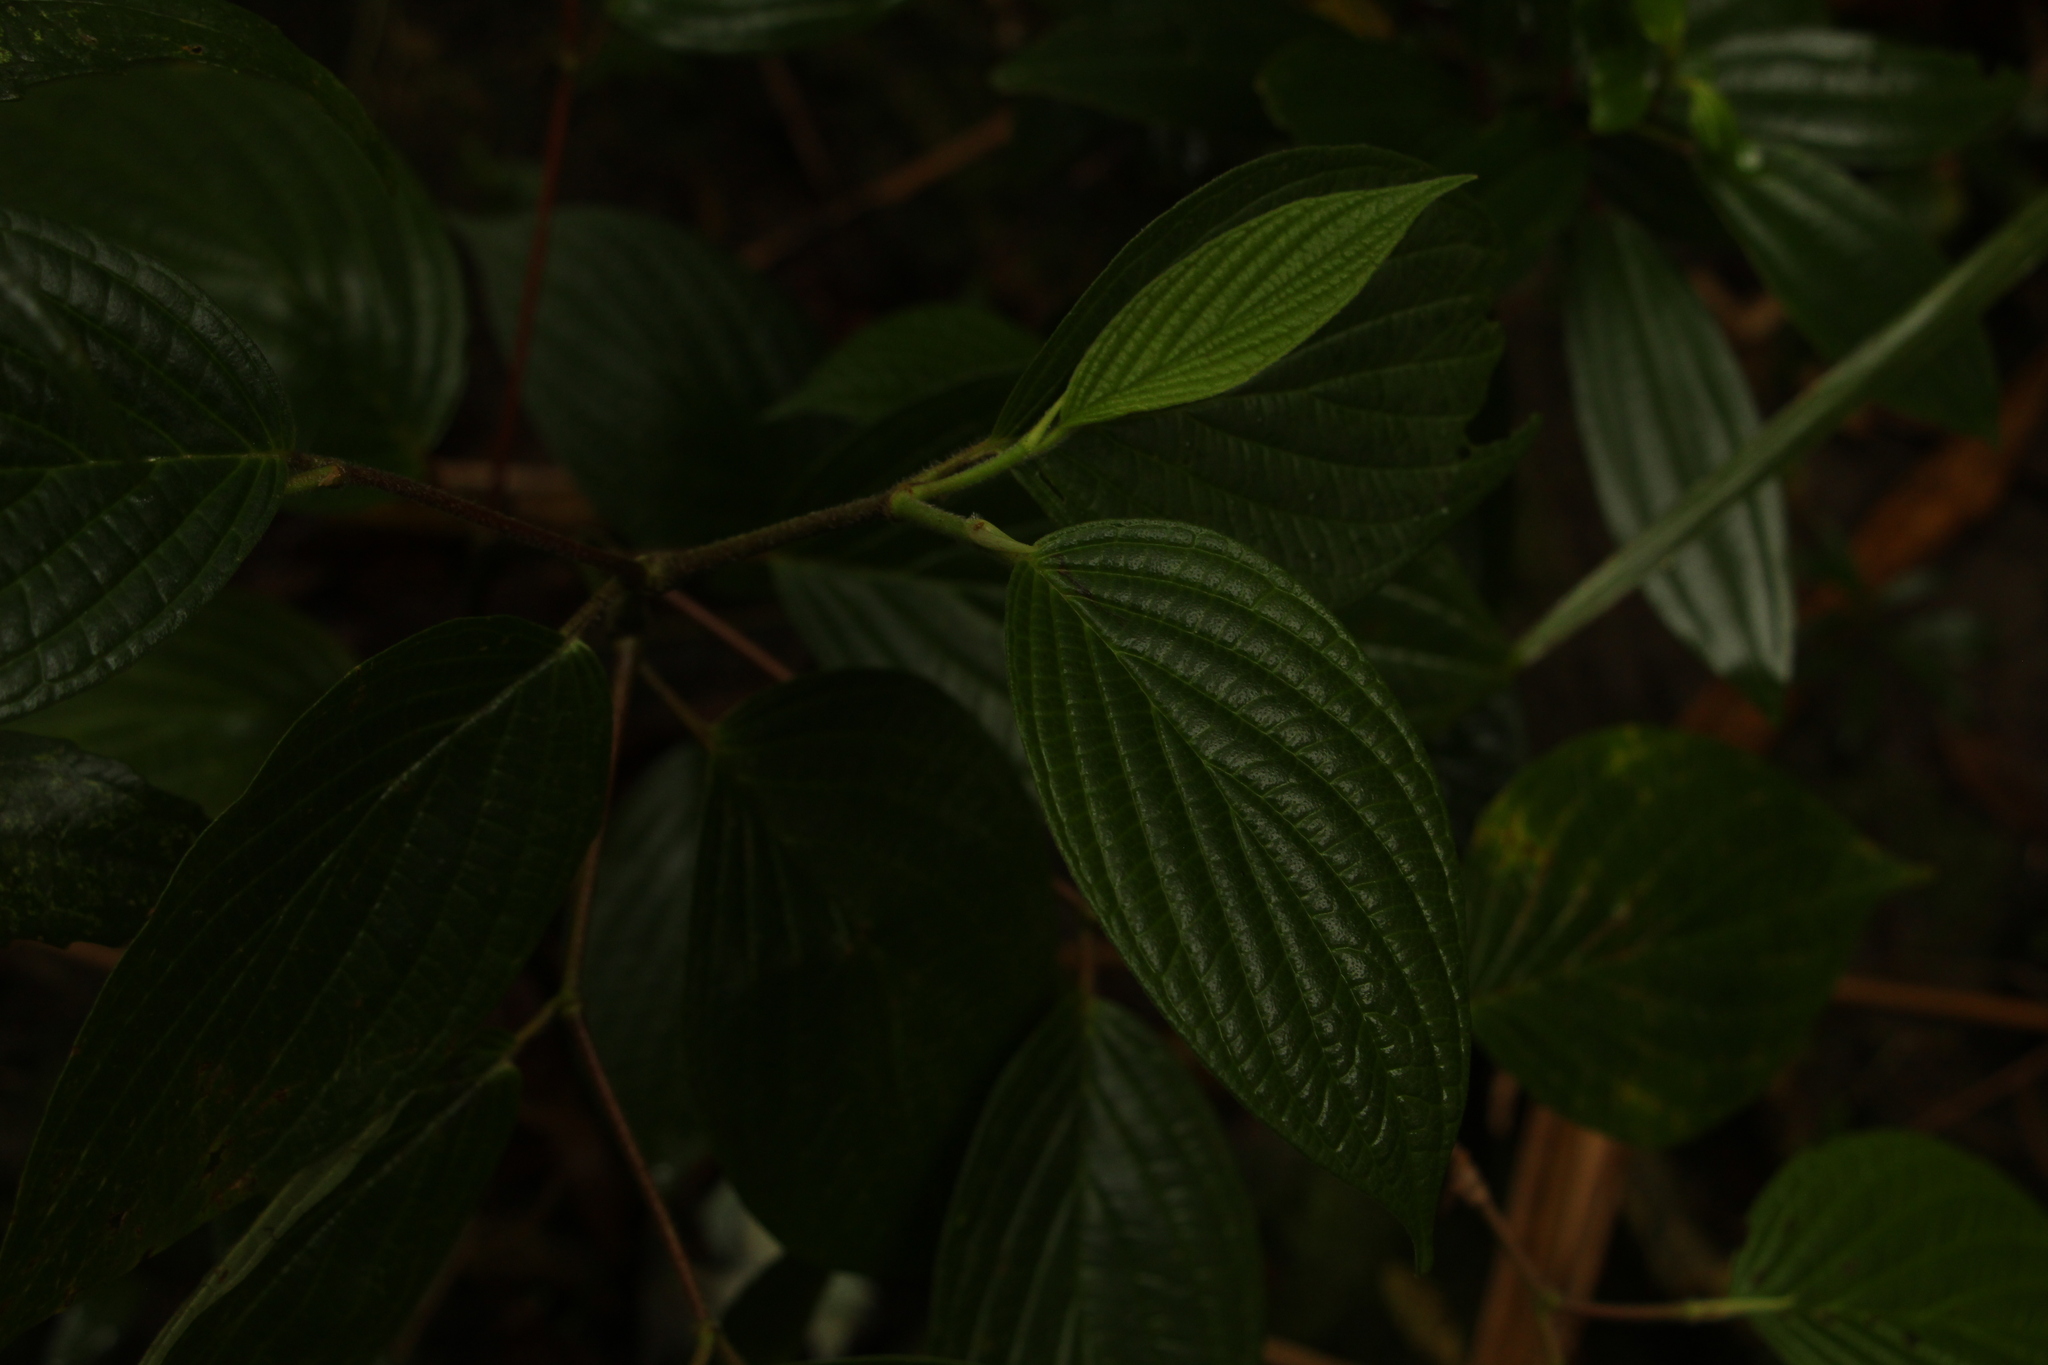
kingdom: Plantae
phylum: Tracheophyta
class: Magnoliopsida
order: Piperales
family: Piperaceae
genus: Piper
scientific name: Piper aduncum
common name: Spiked pepper
